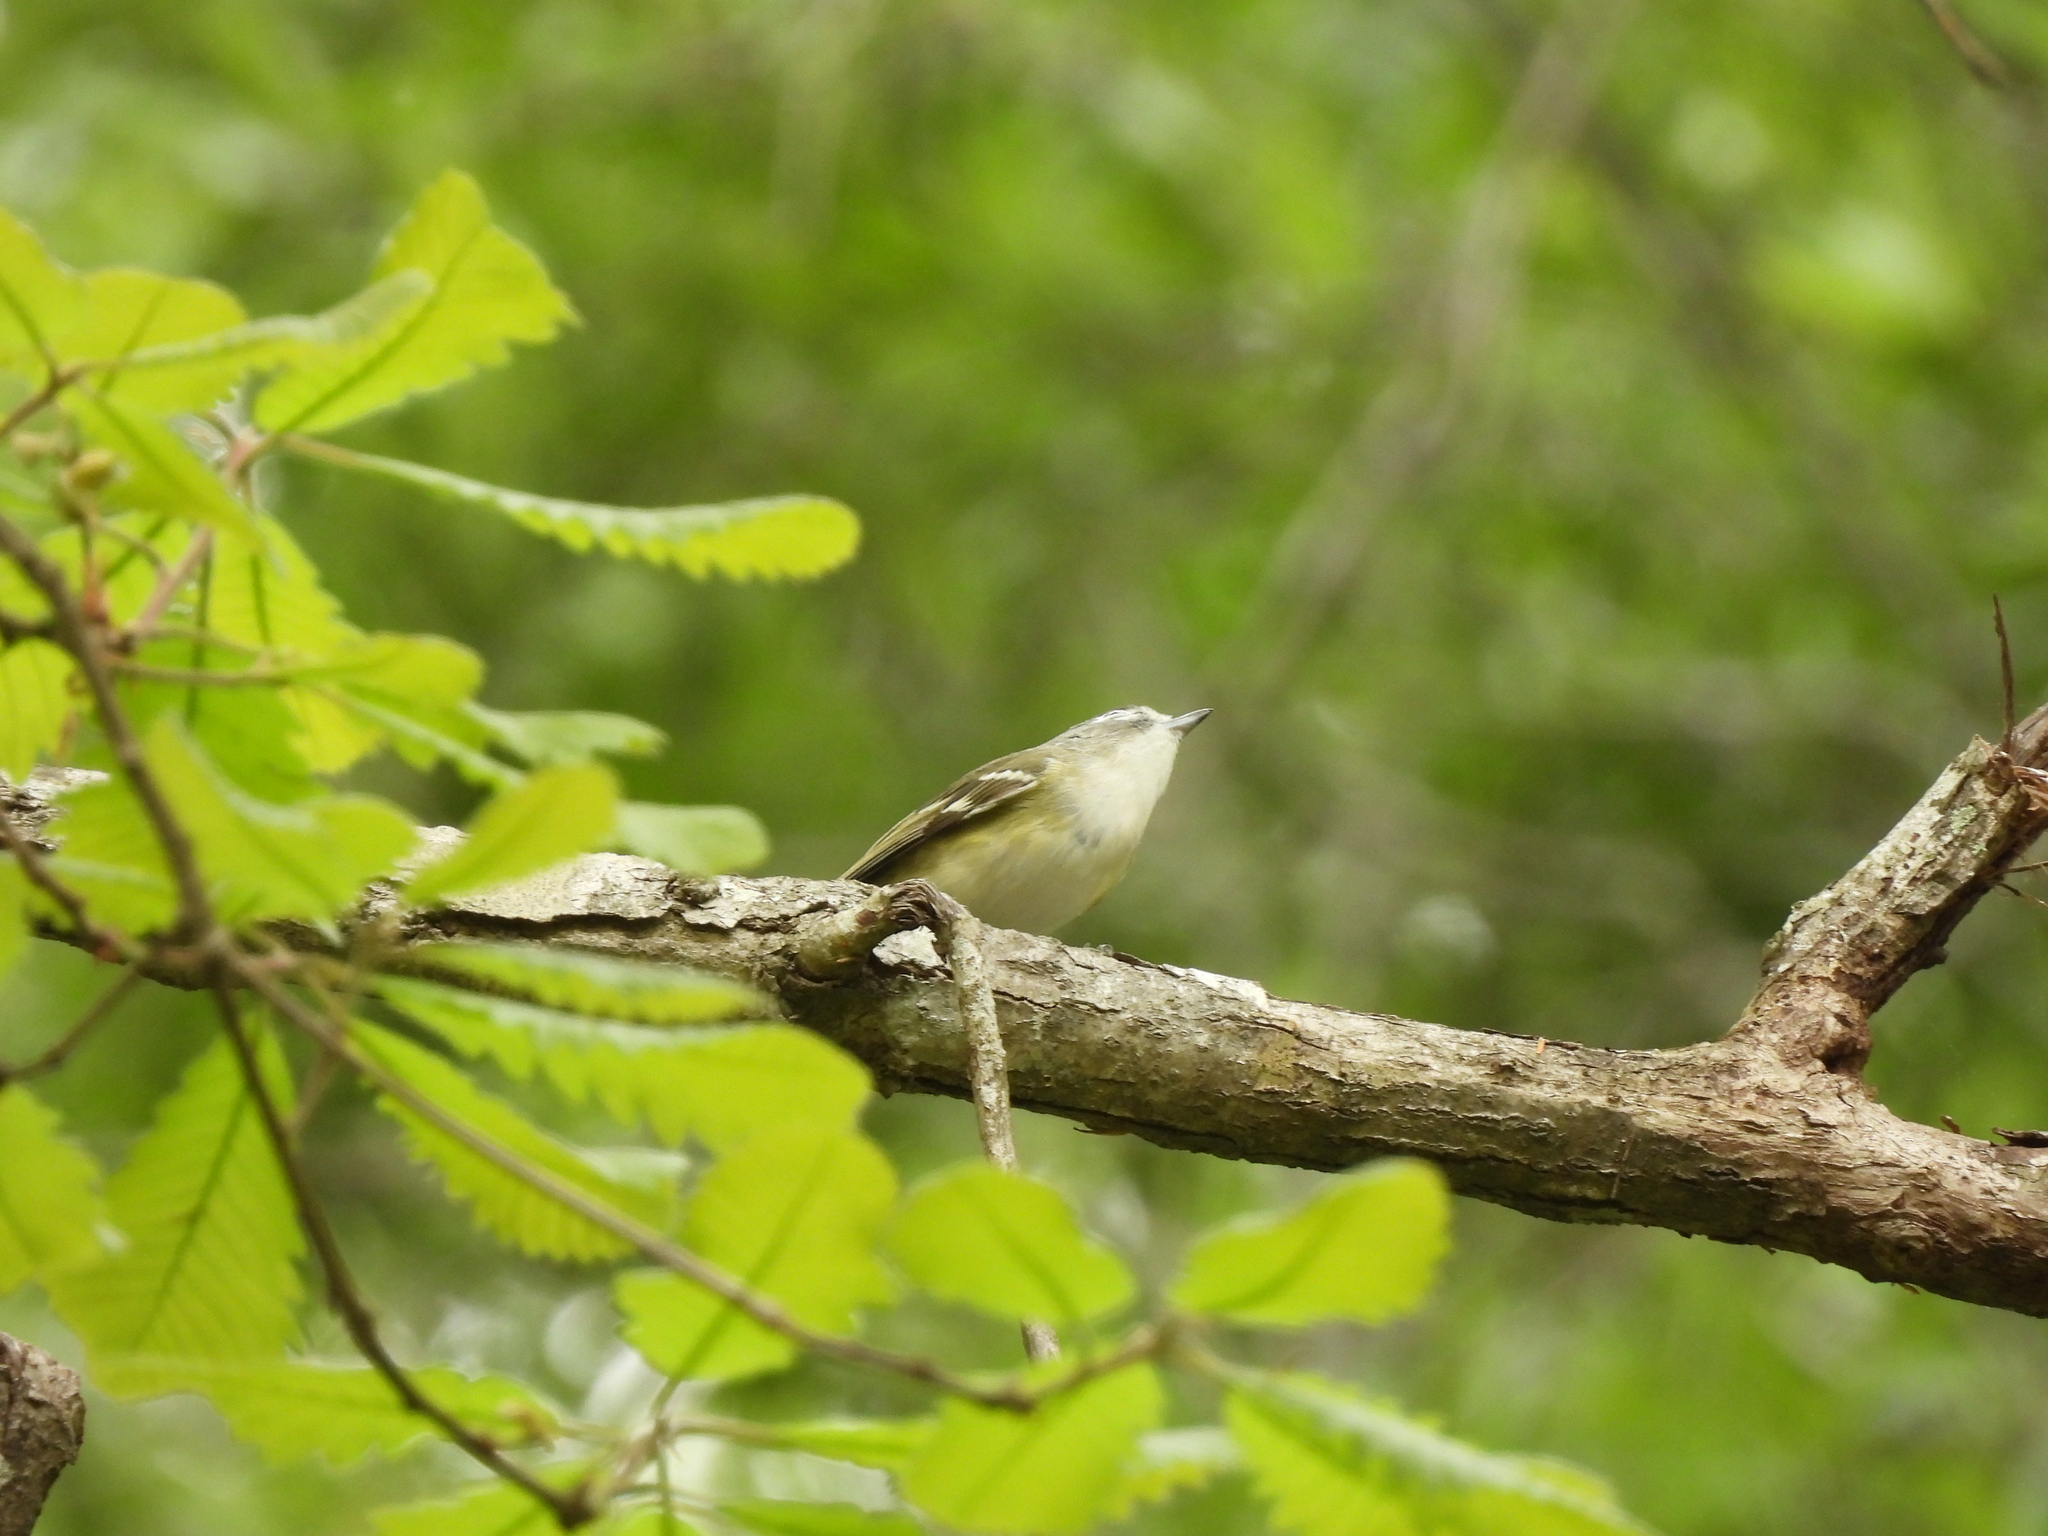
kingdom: Animalia
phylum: Chordata
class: Aves
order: Passeriformes
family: Vireonidae
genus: Vireo
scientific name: Vireo solitarius
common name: Blue-headed vireo
